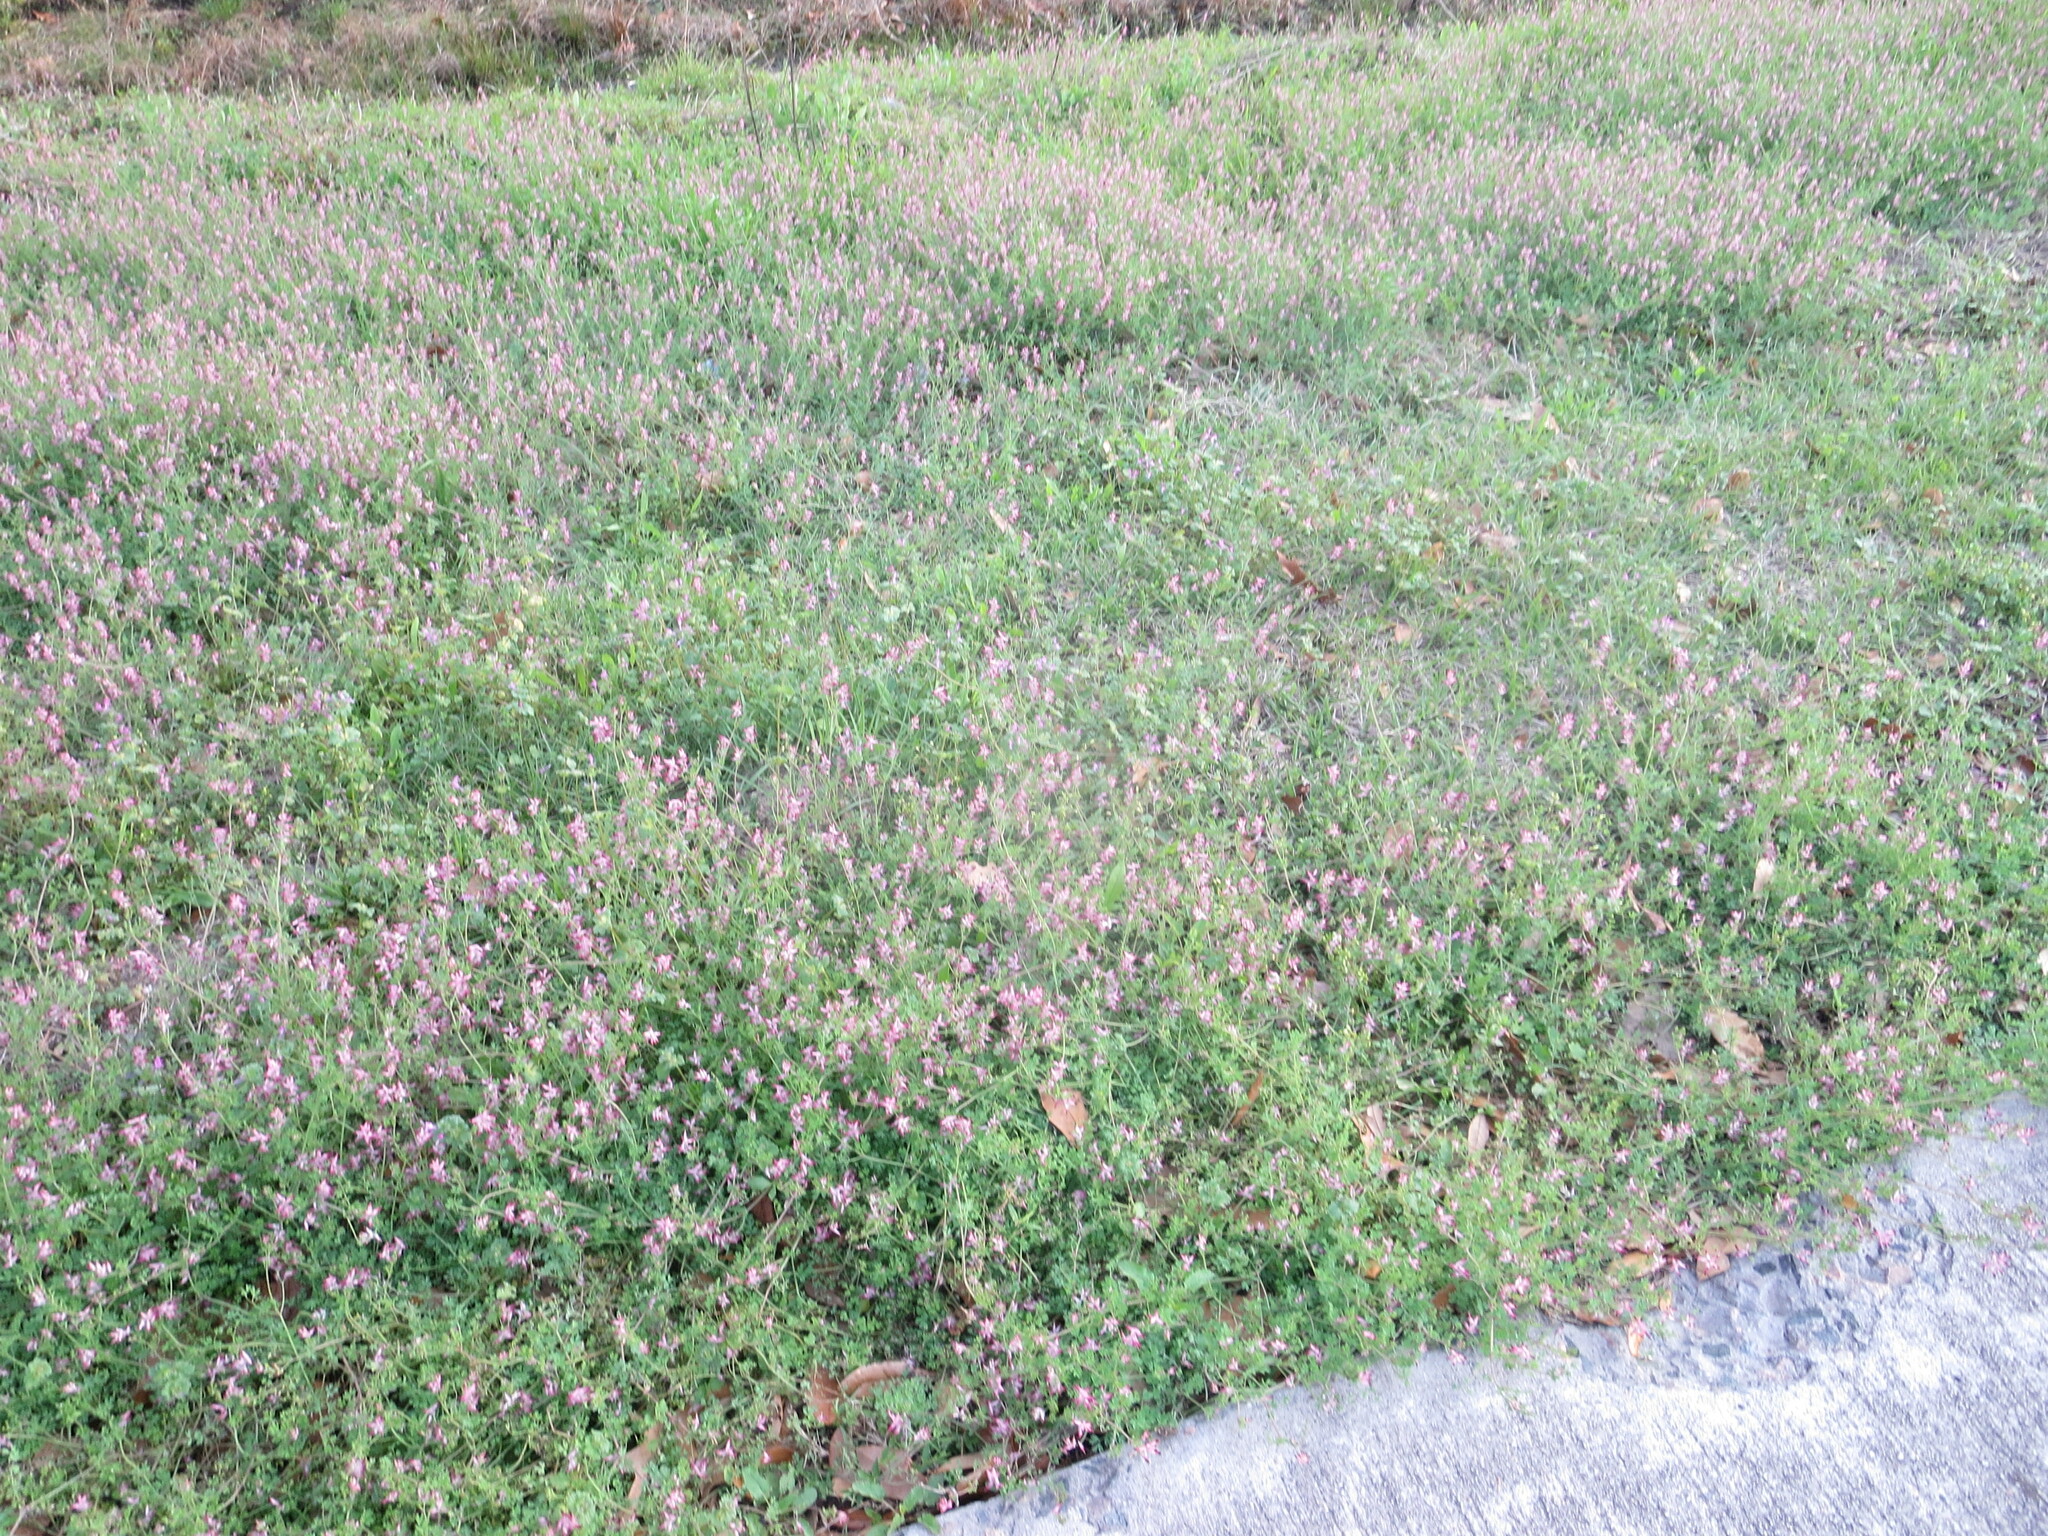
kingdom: Plantae
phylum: Tracheophyta
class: Magnoliopsida
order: Ranunculales
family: Papaveraceae
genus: Fumaria
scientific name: Fumaria muralis
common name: Common ramping-fumitory
